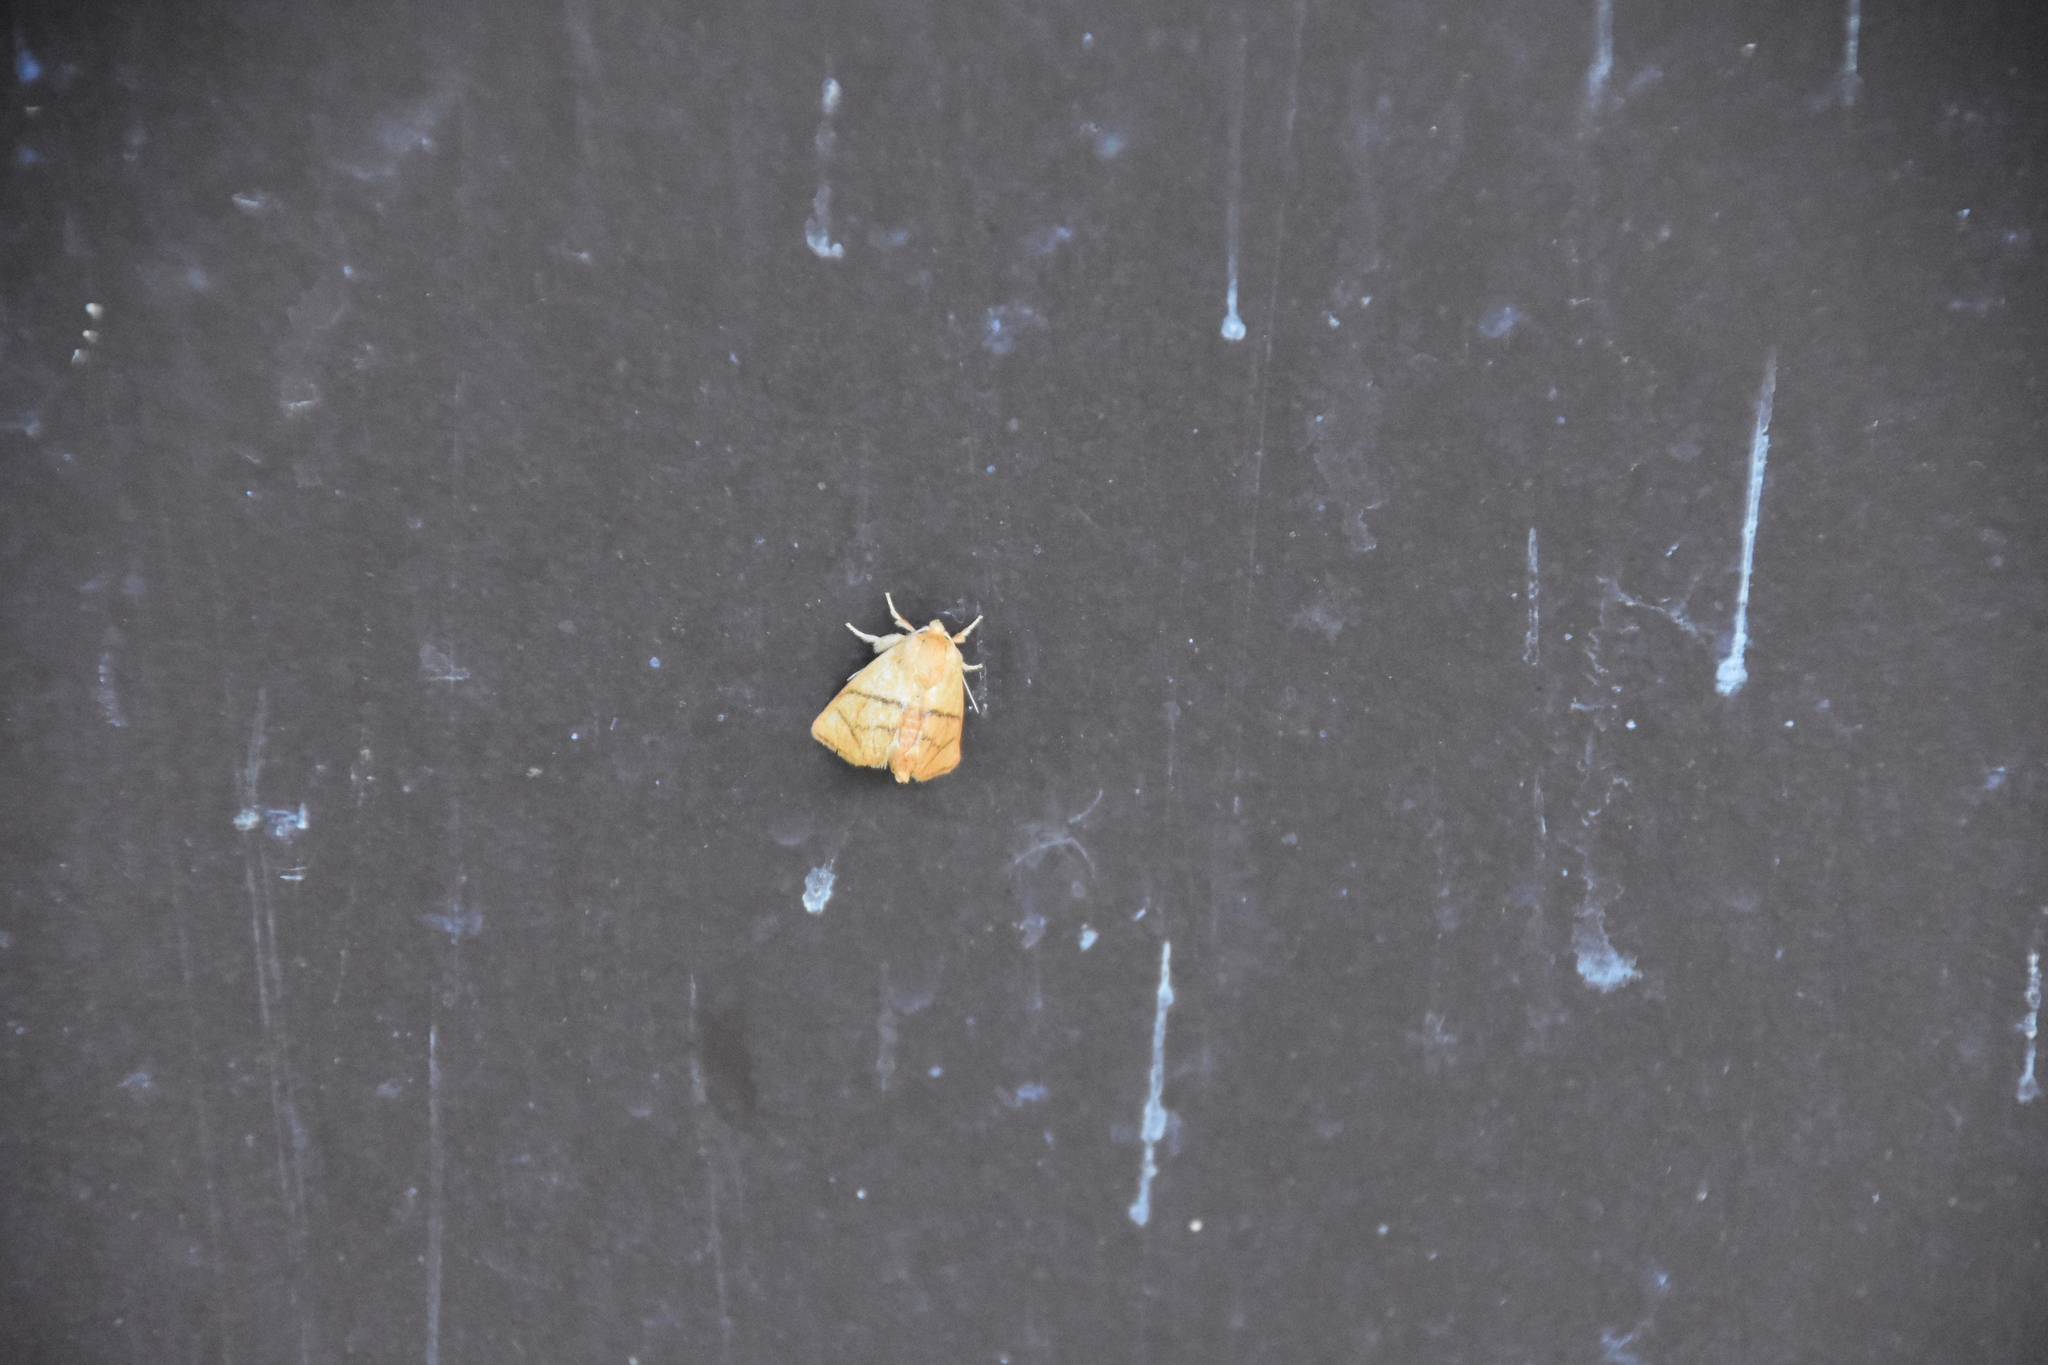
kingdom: Animalia
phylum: Arthropoda
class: Insecta
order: Lepidoptera
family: Limacodidae
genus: Apoda
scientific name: Apoda y-inversa
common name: Yellow-collared slug moth
